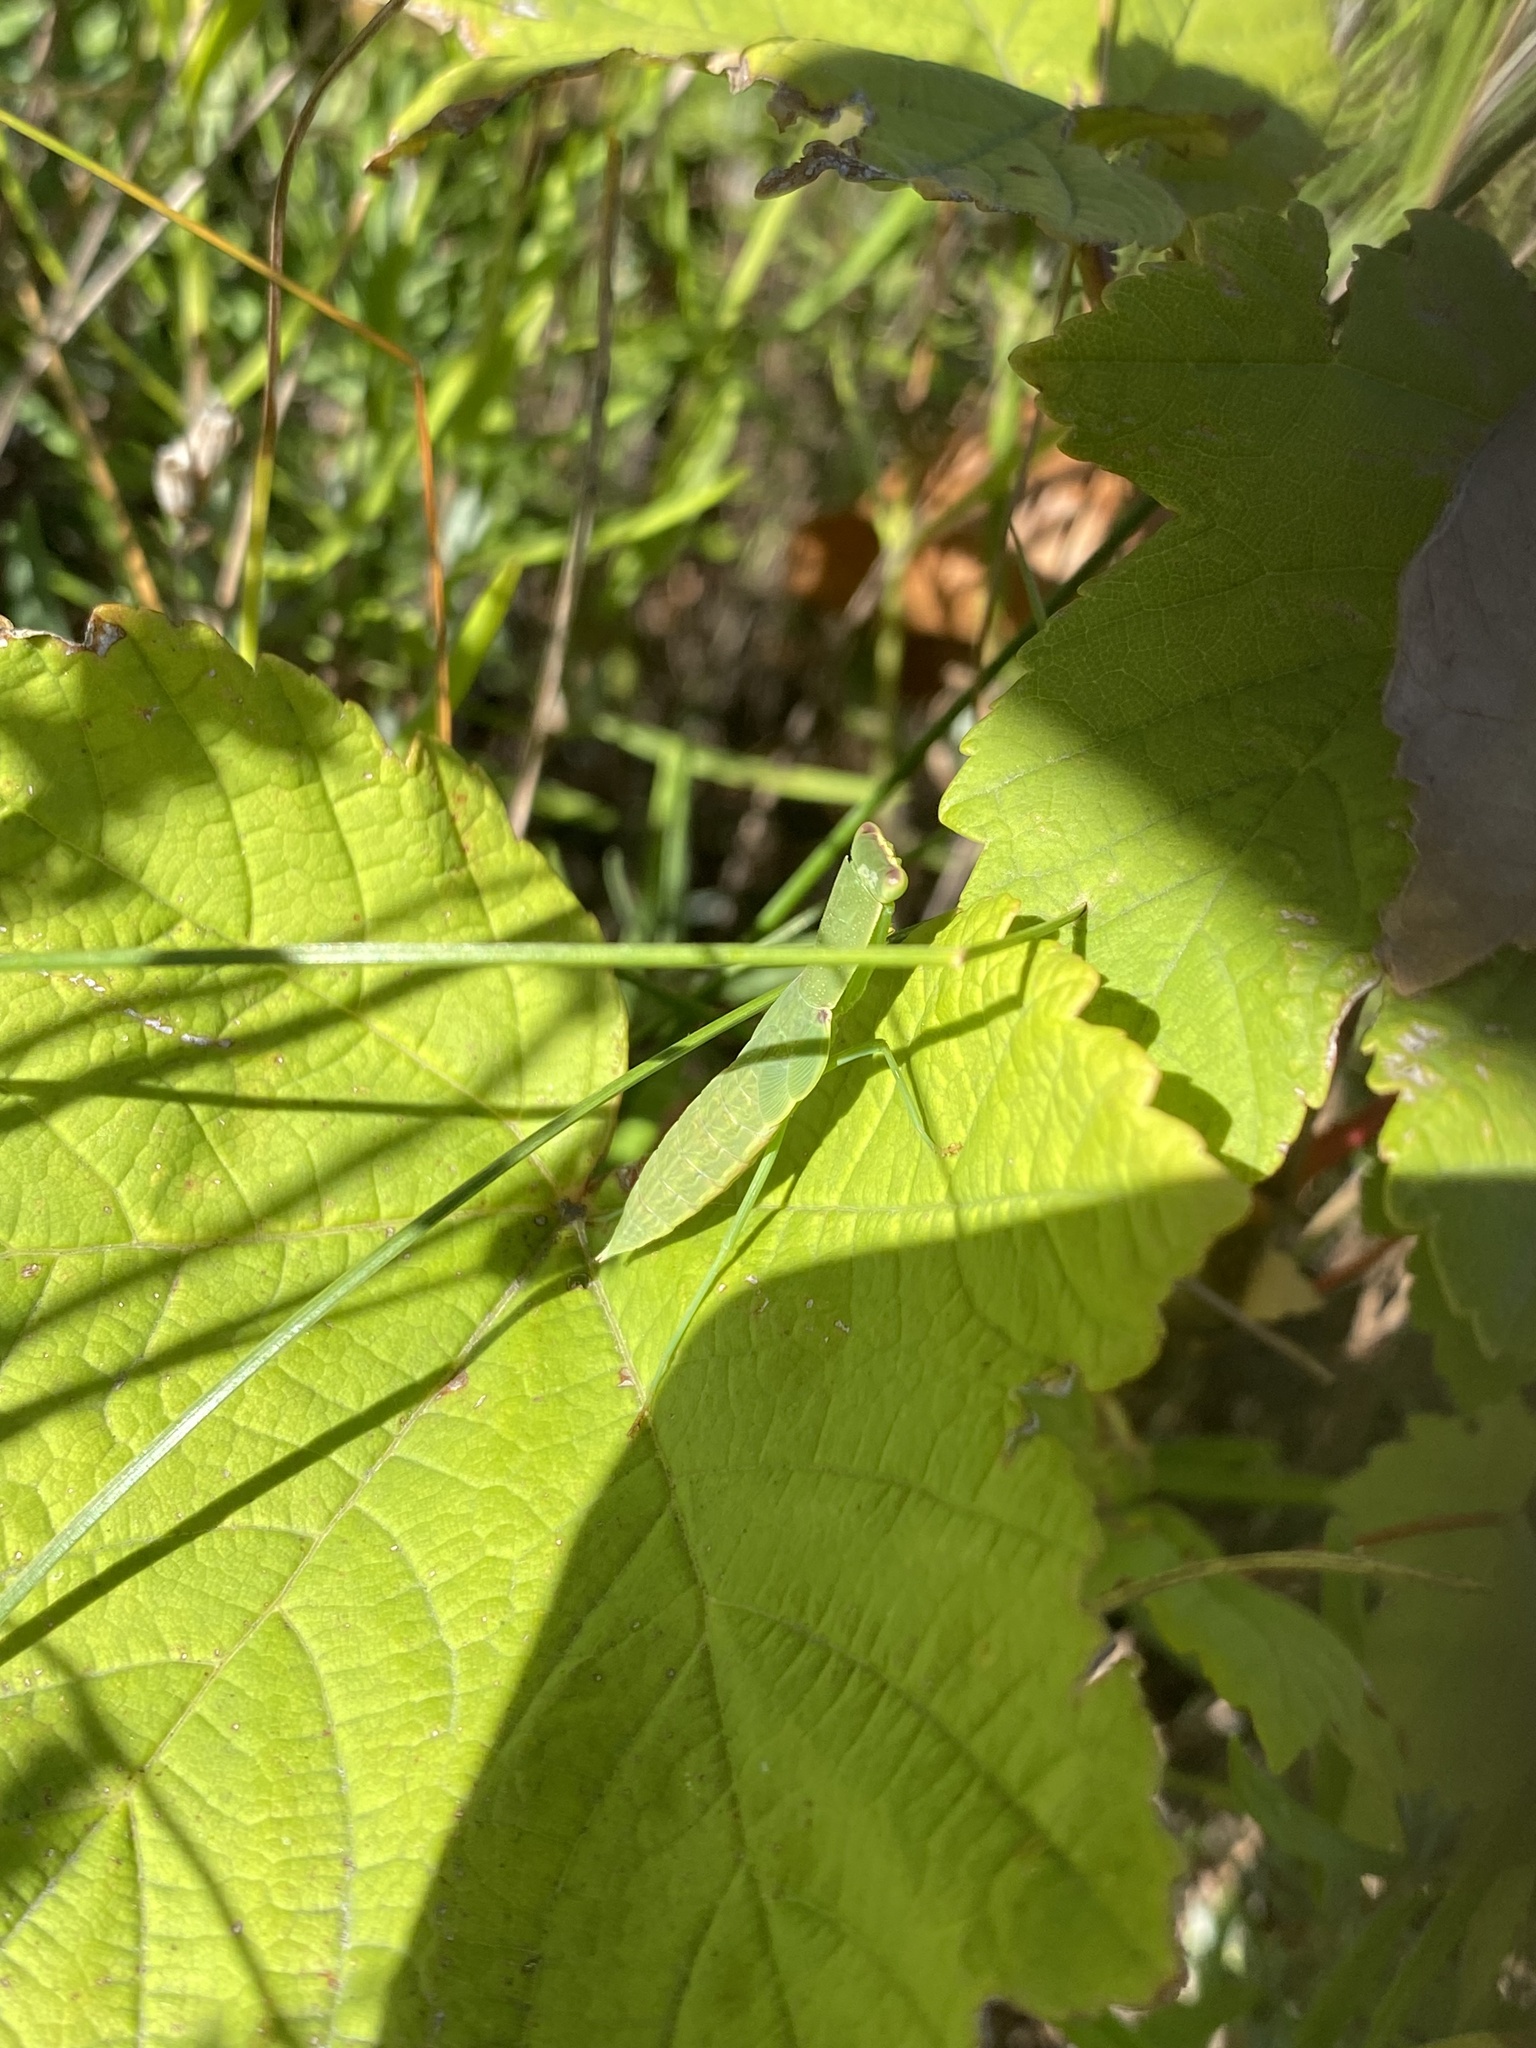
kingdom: Animalia
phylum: Arthropoda
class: Insecta
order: Mantodea
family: Mantidae
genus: Orthodera
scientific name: Orthodera novaezealandiae
